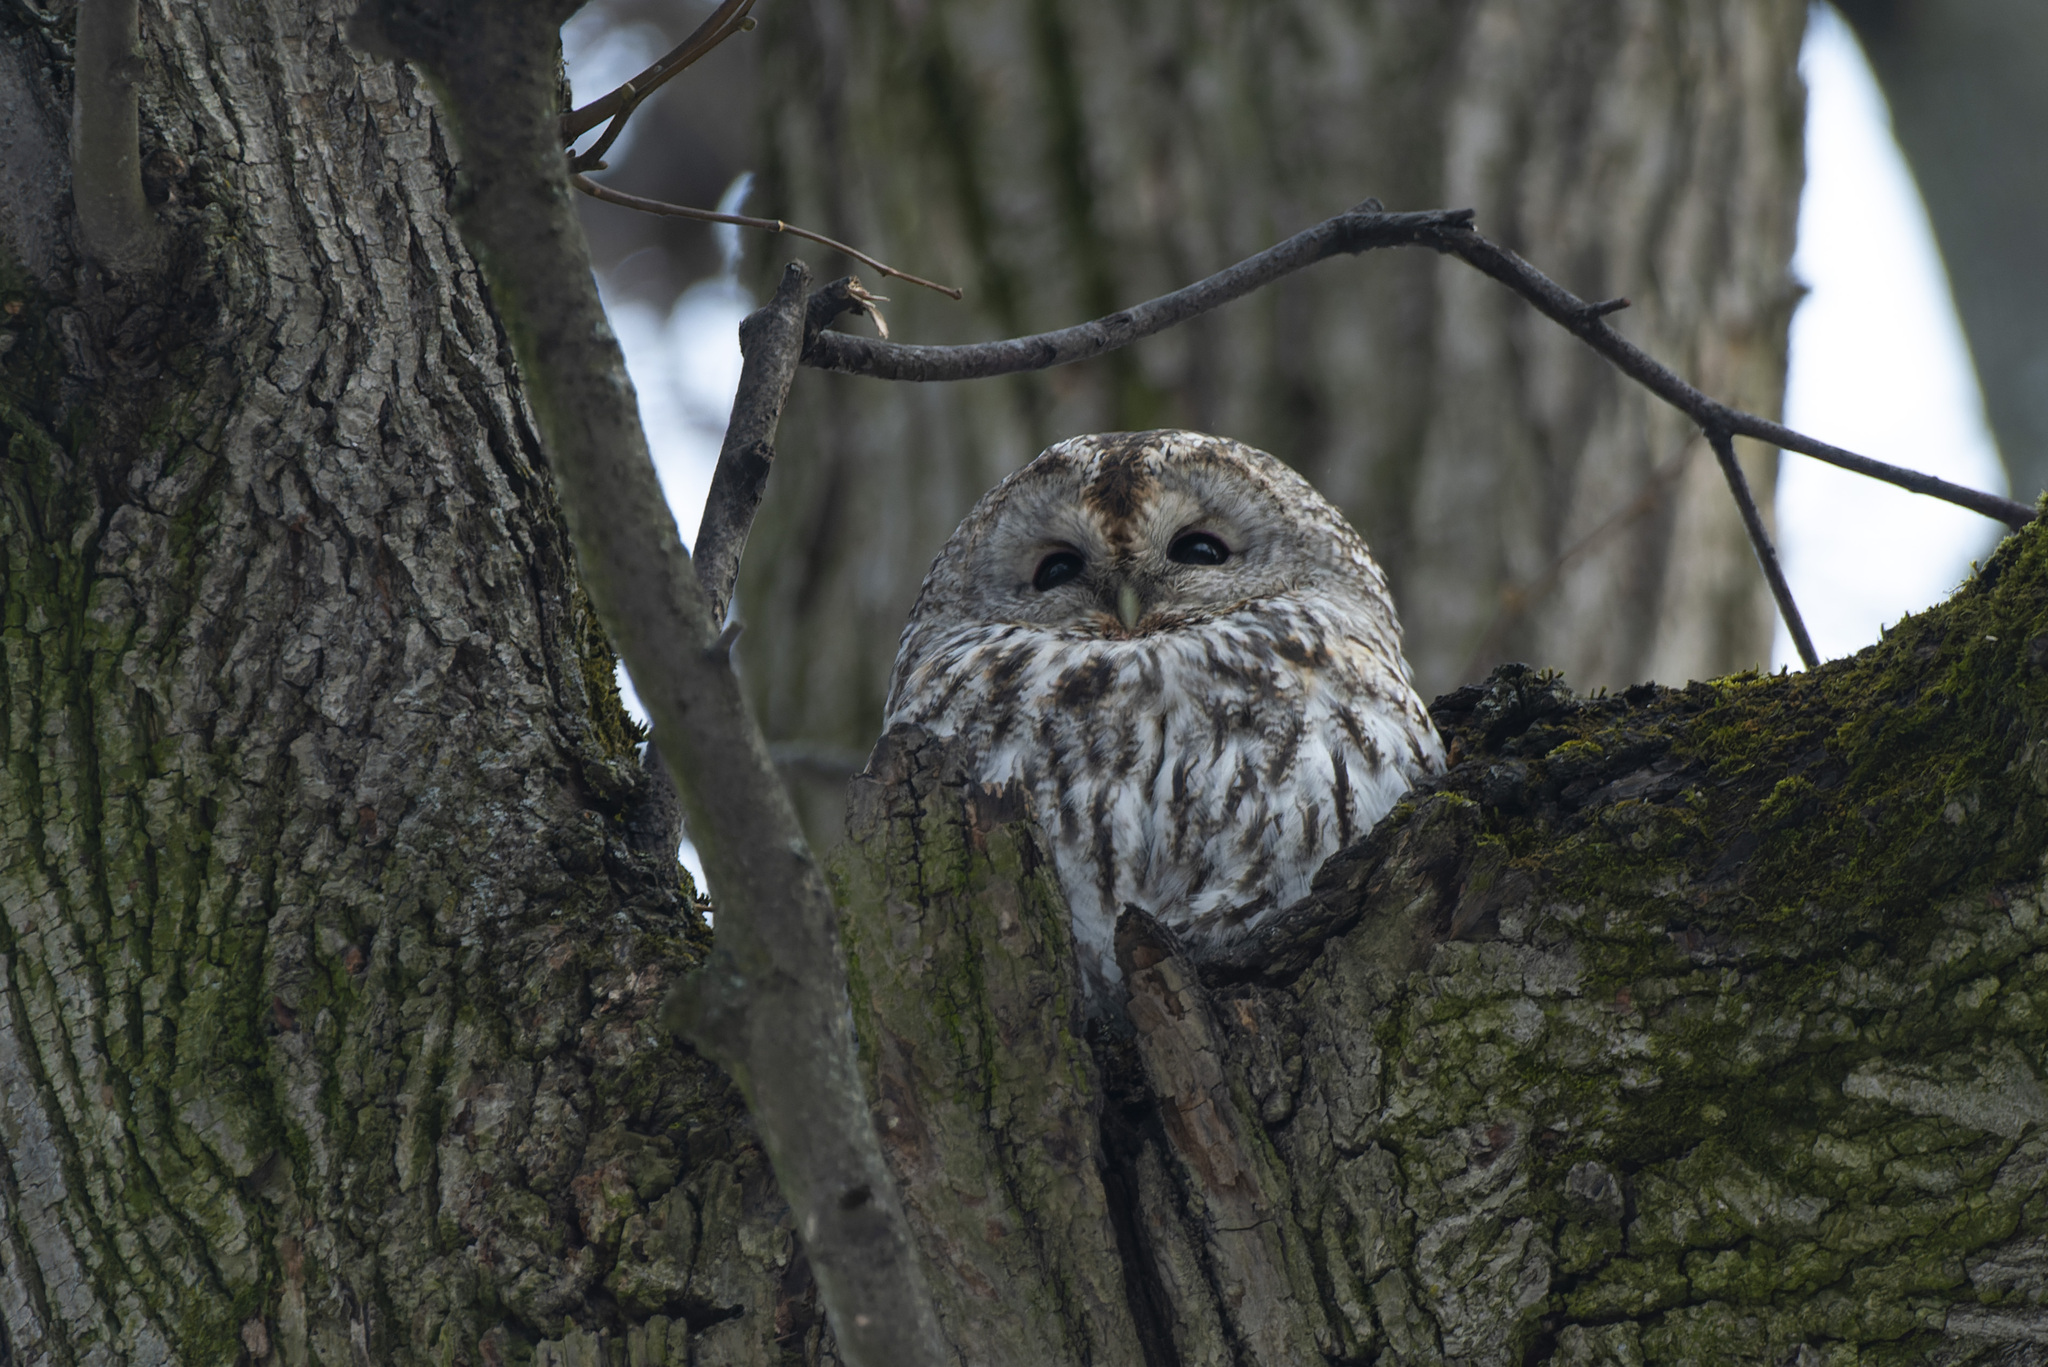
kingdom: Animalia
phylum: Chordata
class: Aves
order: Strigiformes
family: Strigidae
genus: Strix
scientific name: Strix aluco
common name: Tawny owl
